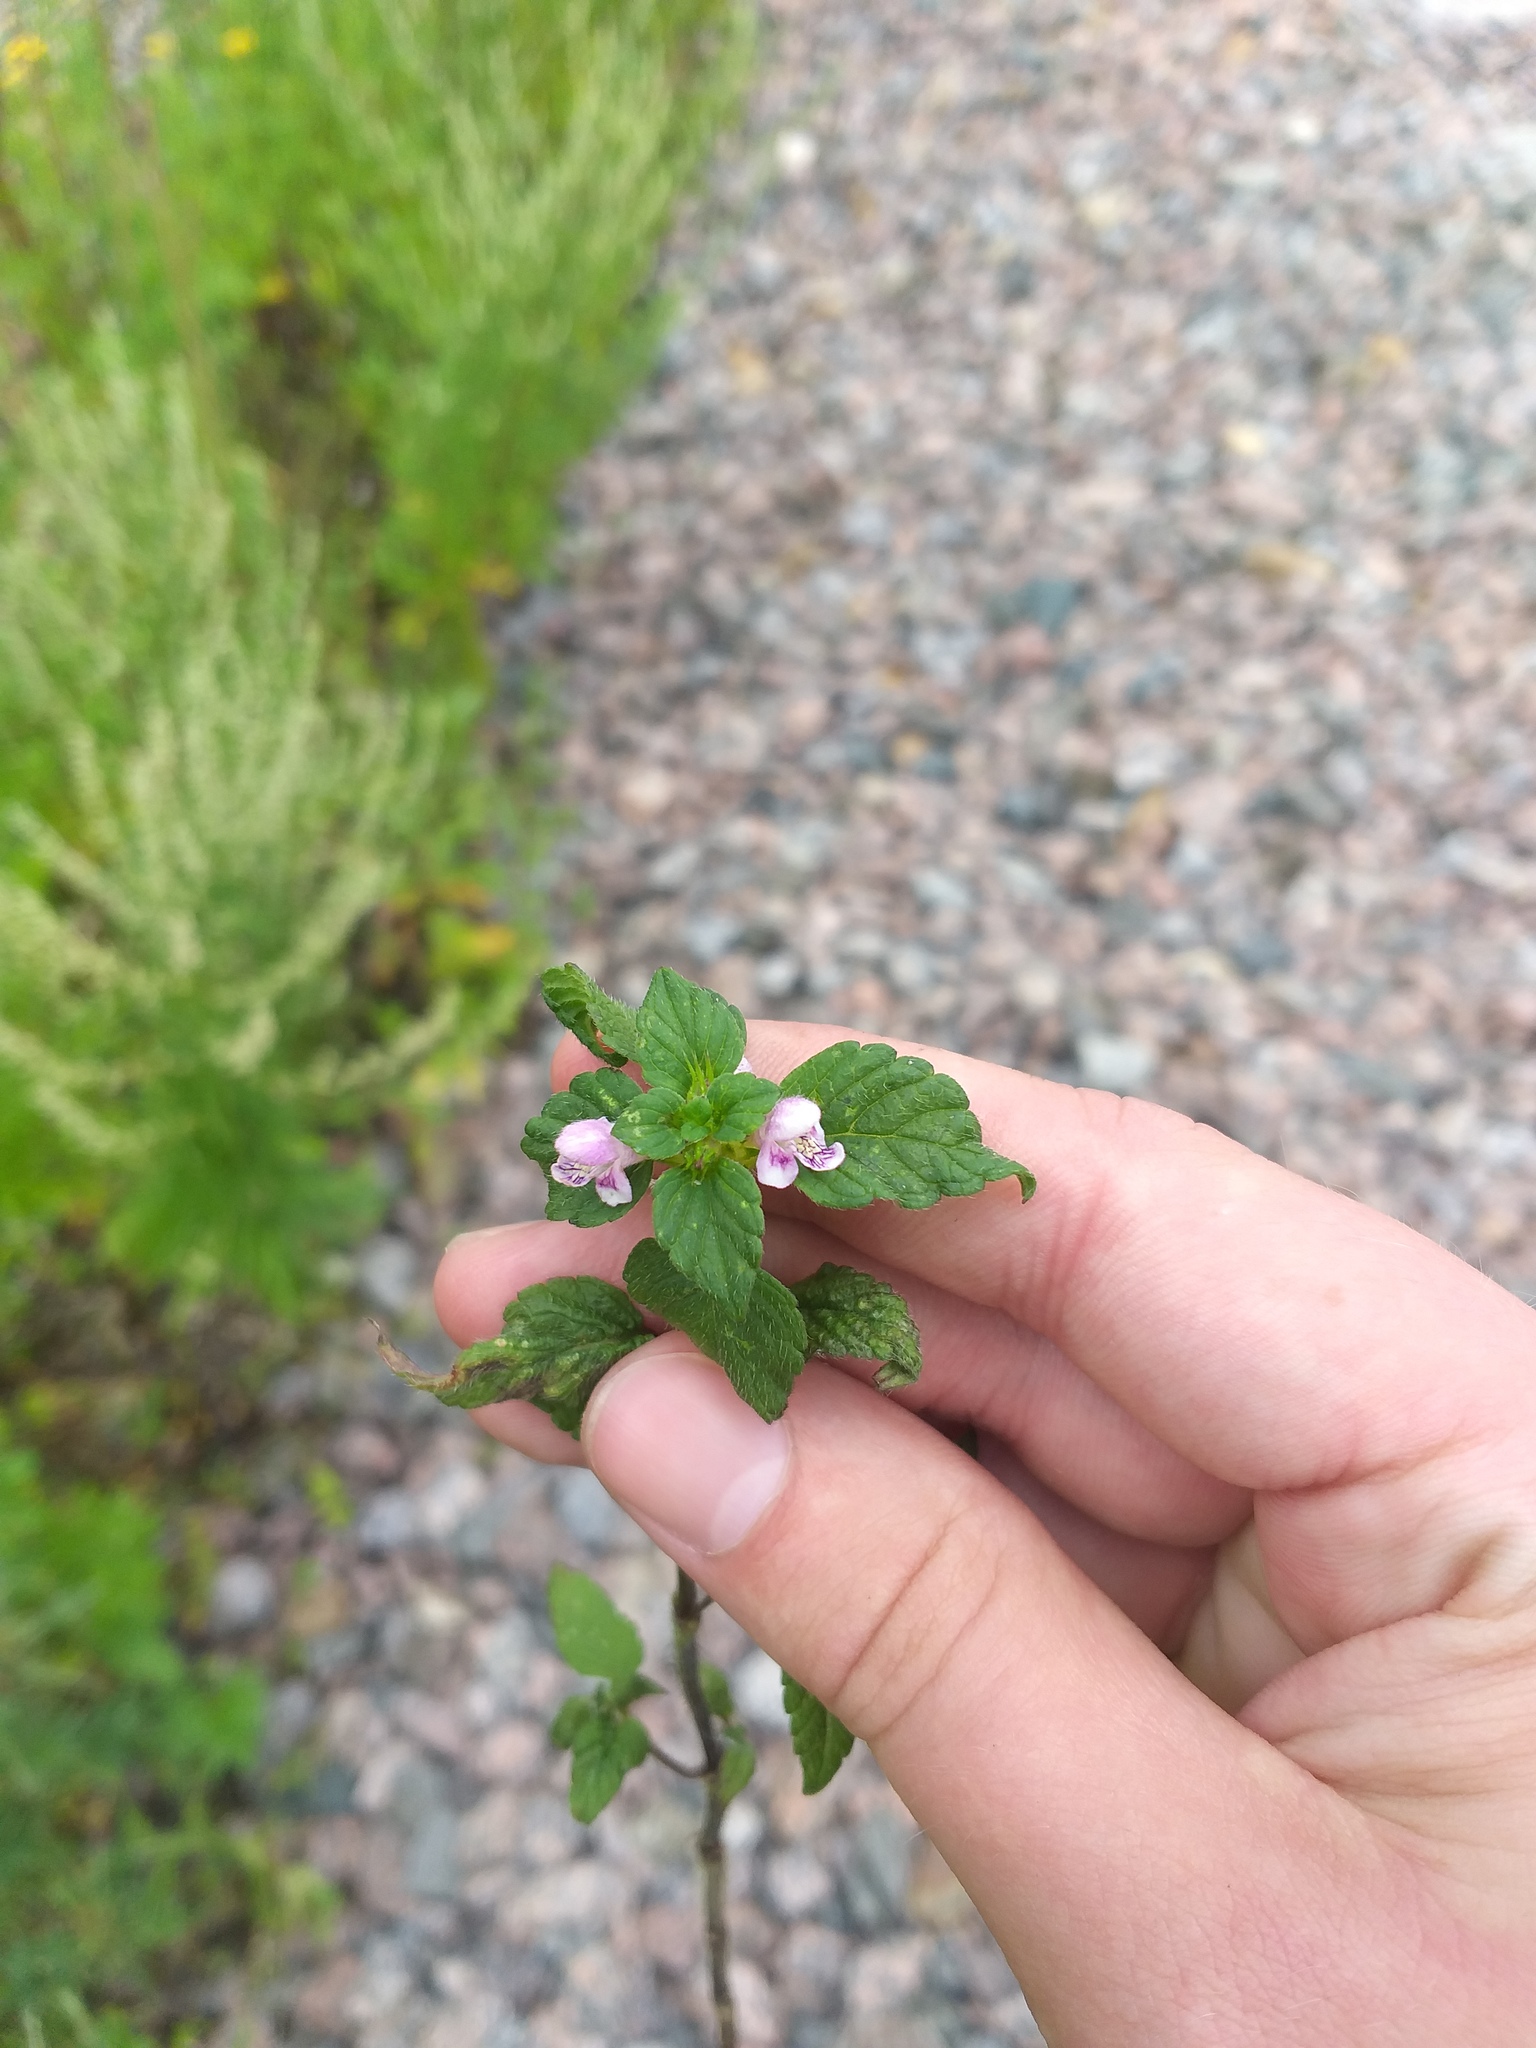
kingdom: Plantae
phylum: Tracheophyta
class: Magnoliopsida
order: Lamiales
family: Lamiaceae
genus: Galeopsis
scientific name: Galeopsis tetrahit
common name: Common hemp-nettle
